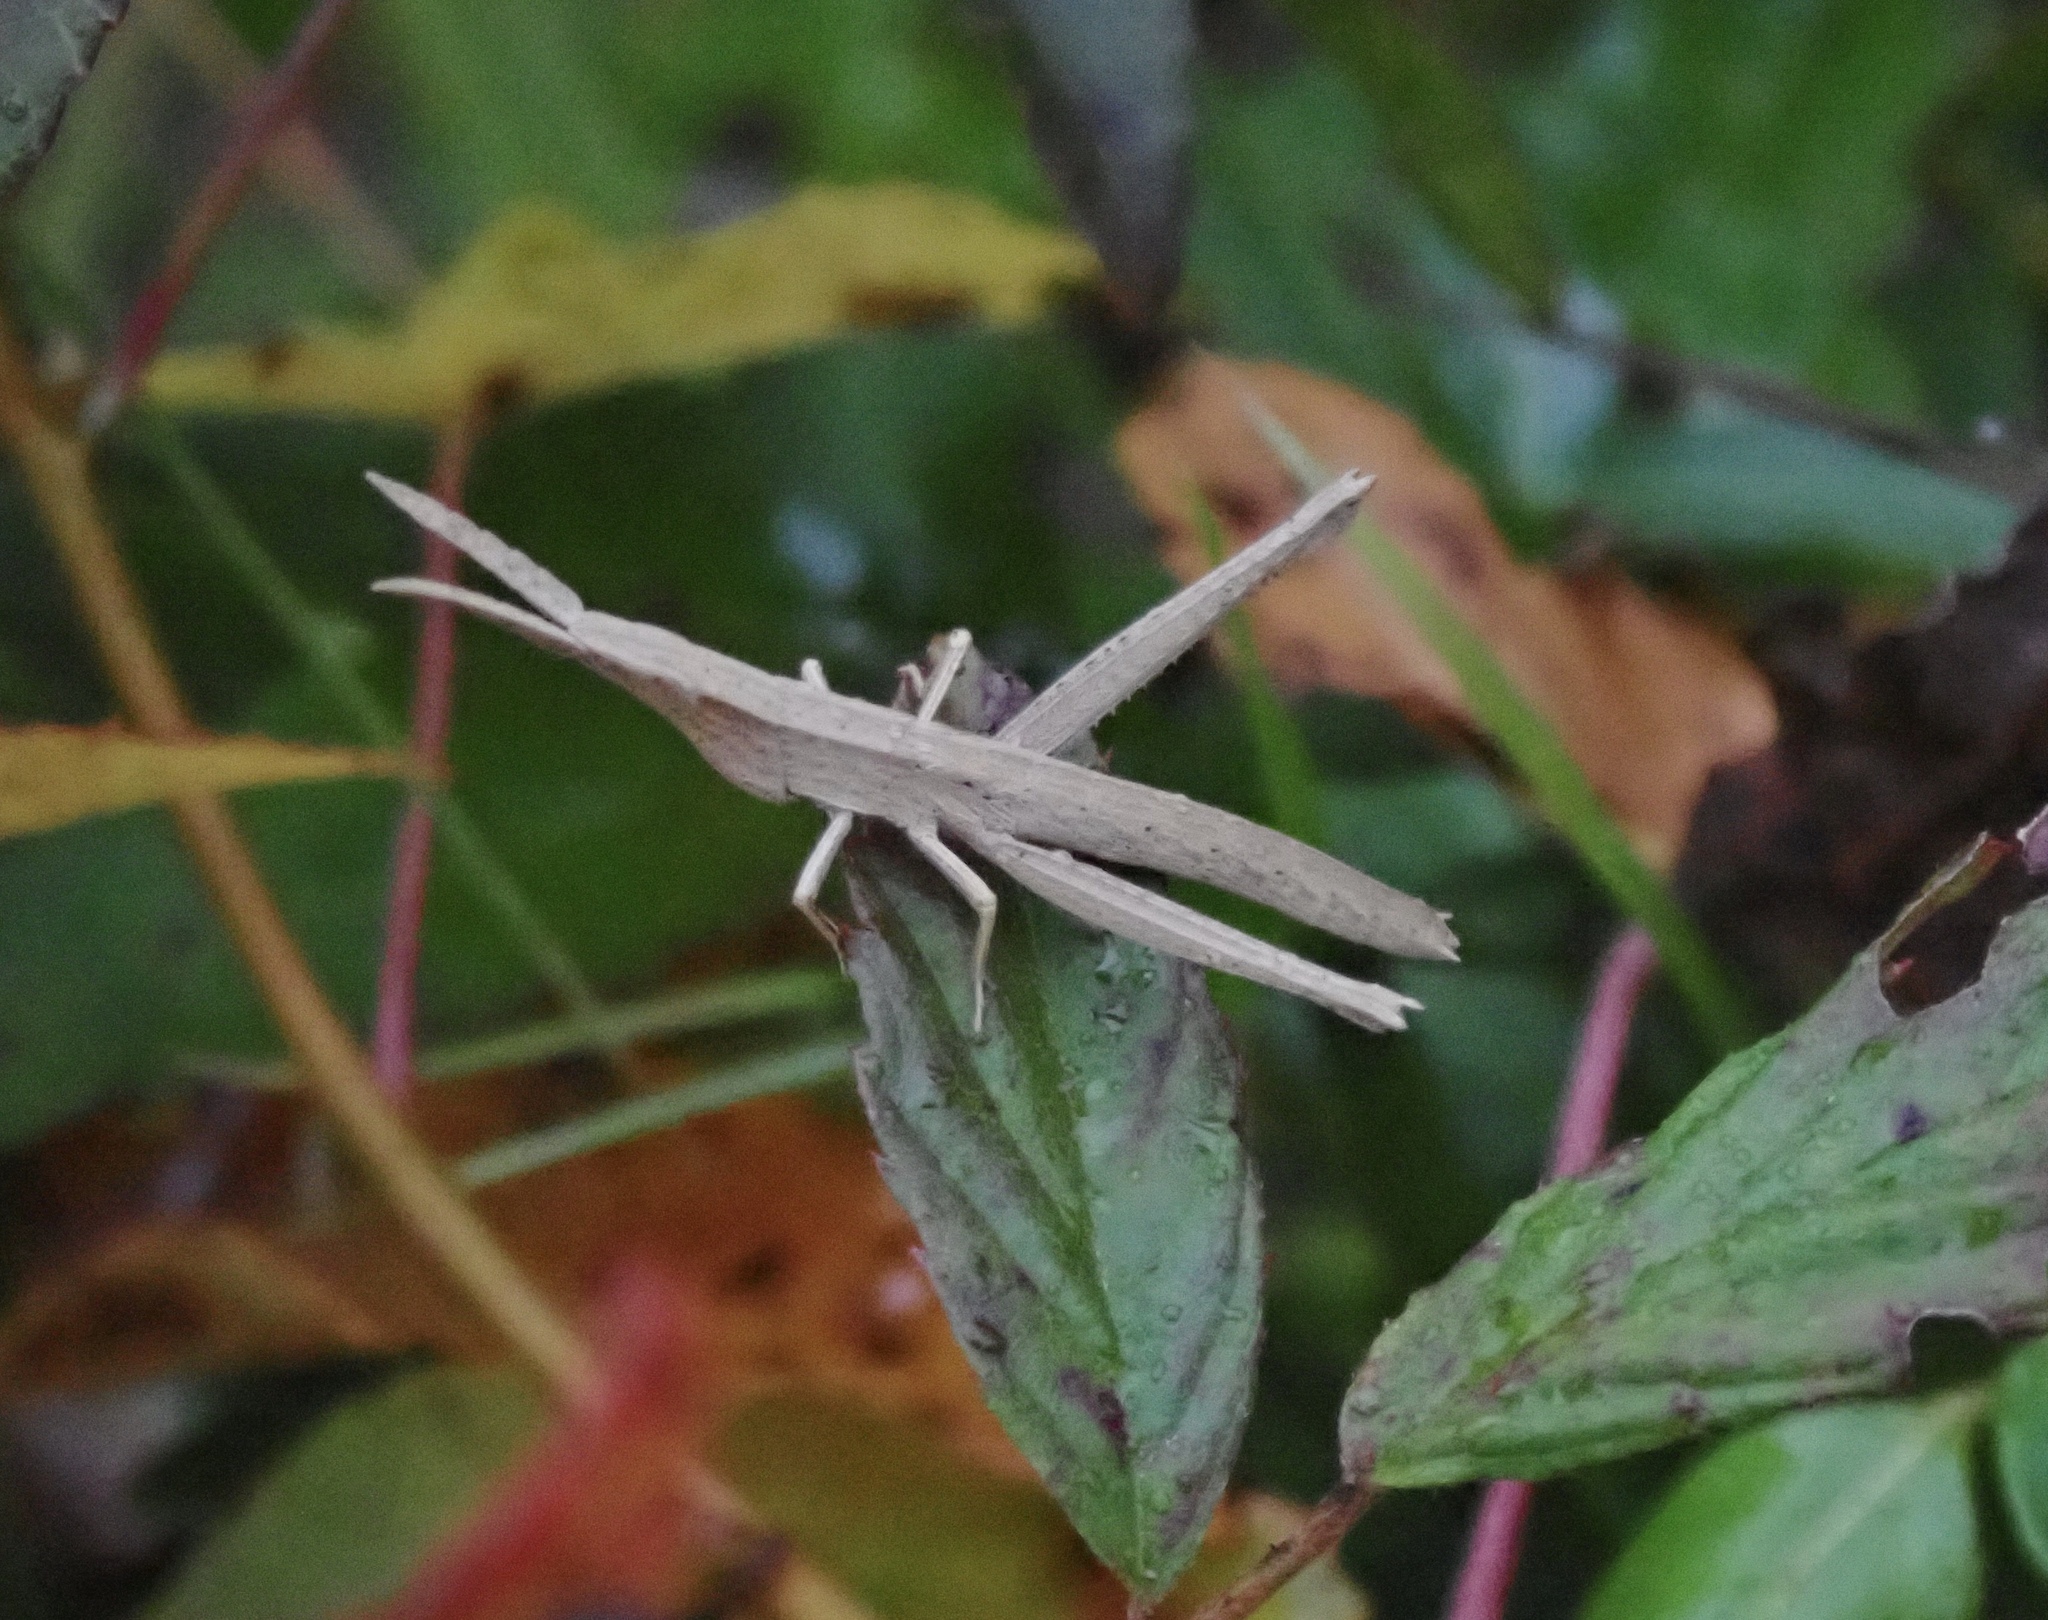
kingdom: Animalia
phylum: Arthropoda
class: Insecta
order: Orthoptera
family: Acrididae
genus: Achurum
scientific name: Achurum carinatum
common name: Long-headed toothpick grasshopper
